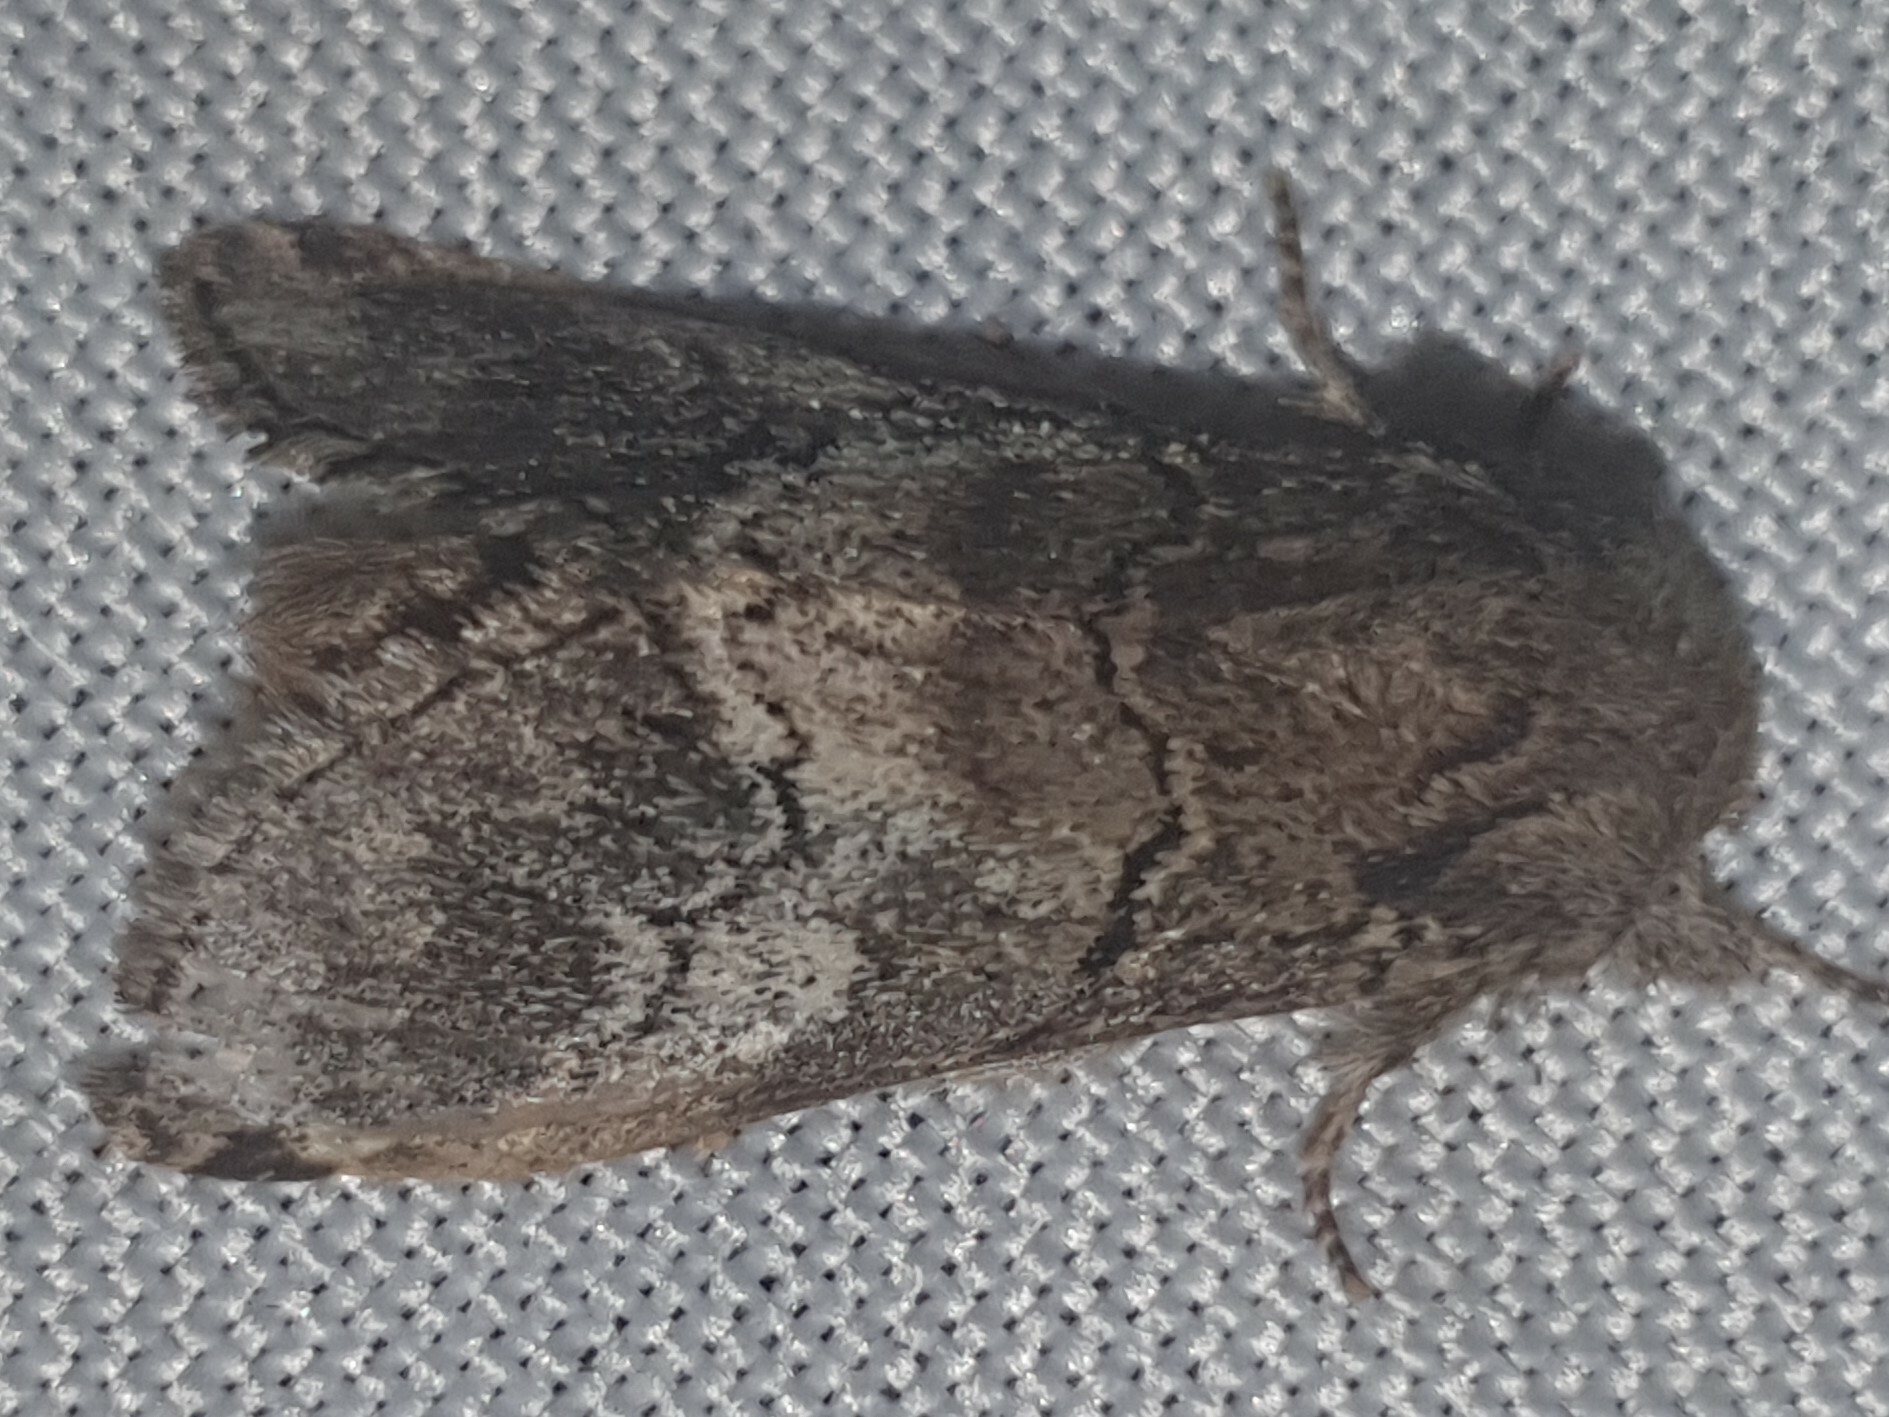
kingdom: Animalia
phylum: Arthropoda
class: Insecta
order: Lepidoptera
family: Notodontidae
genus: Drymonia
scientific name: Drymonia querna
